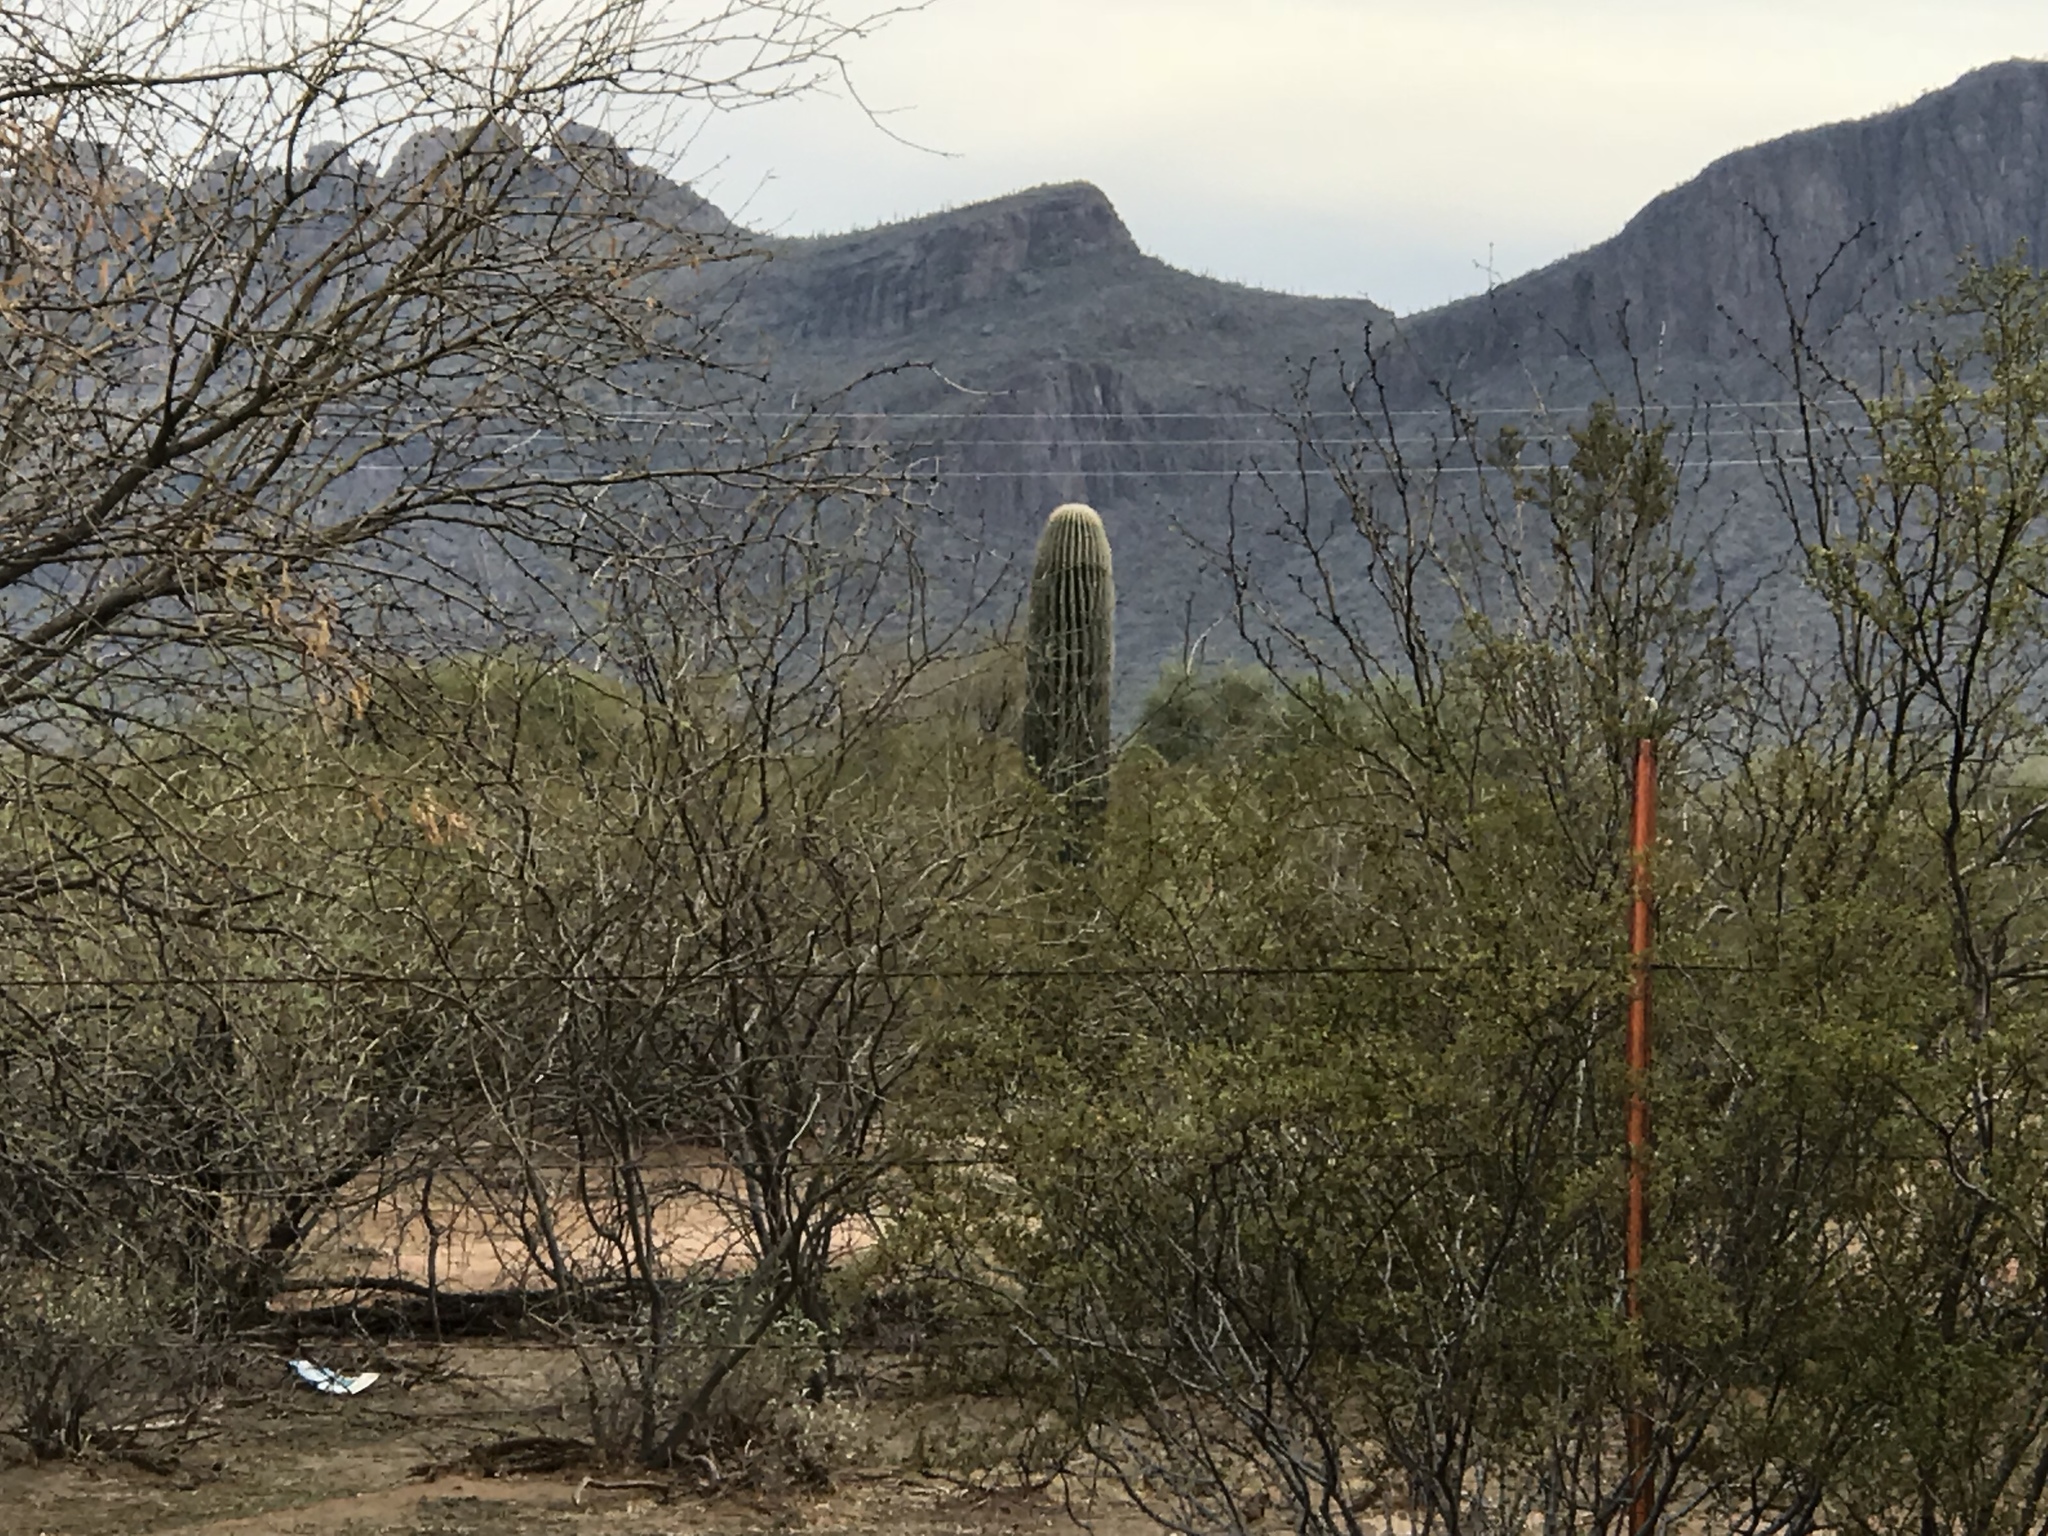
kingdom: Plantae
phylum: Tracheophyta
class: Magnoliopsida
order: Caryophyllales
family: Cactaceae
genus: Carnegiea
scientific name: Carnegiea gigantea
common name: Saguaro
